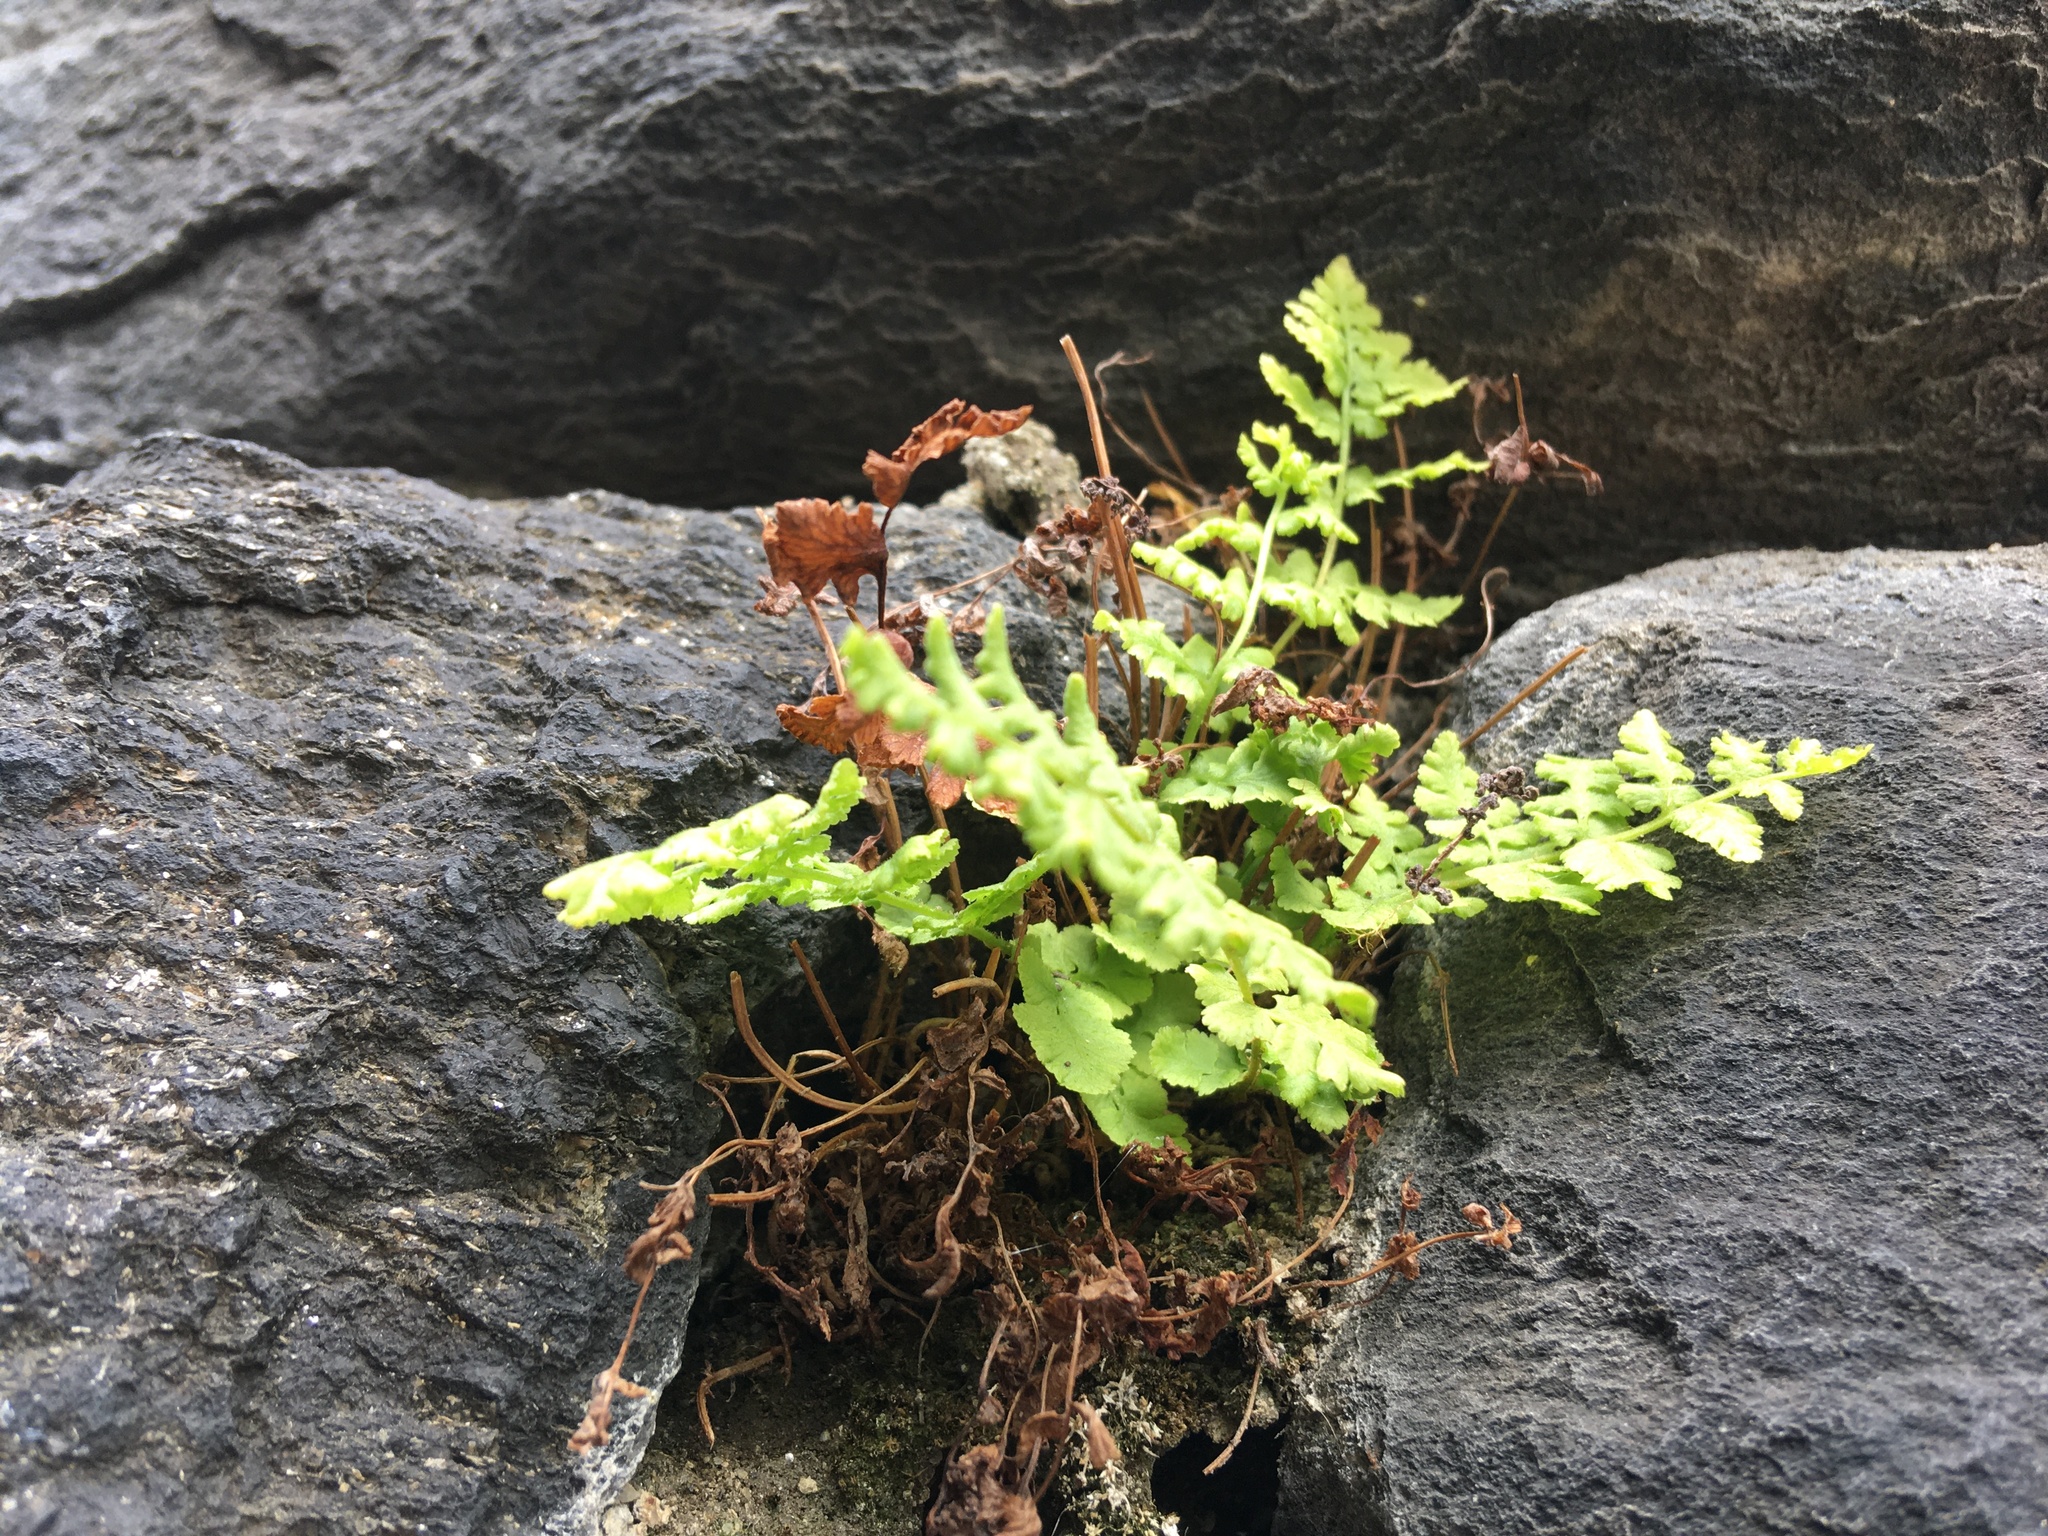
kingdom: Plantae
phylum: Tracheophyta
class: Polypodiopsida
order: Polypodiales
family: Woodsiaceae
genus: Physematium
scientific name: Physematium obtusum
